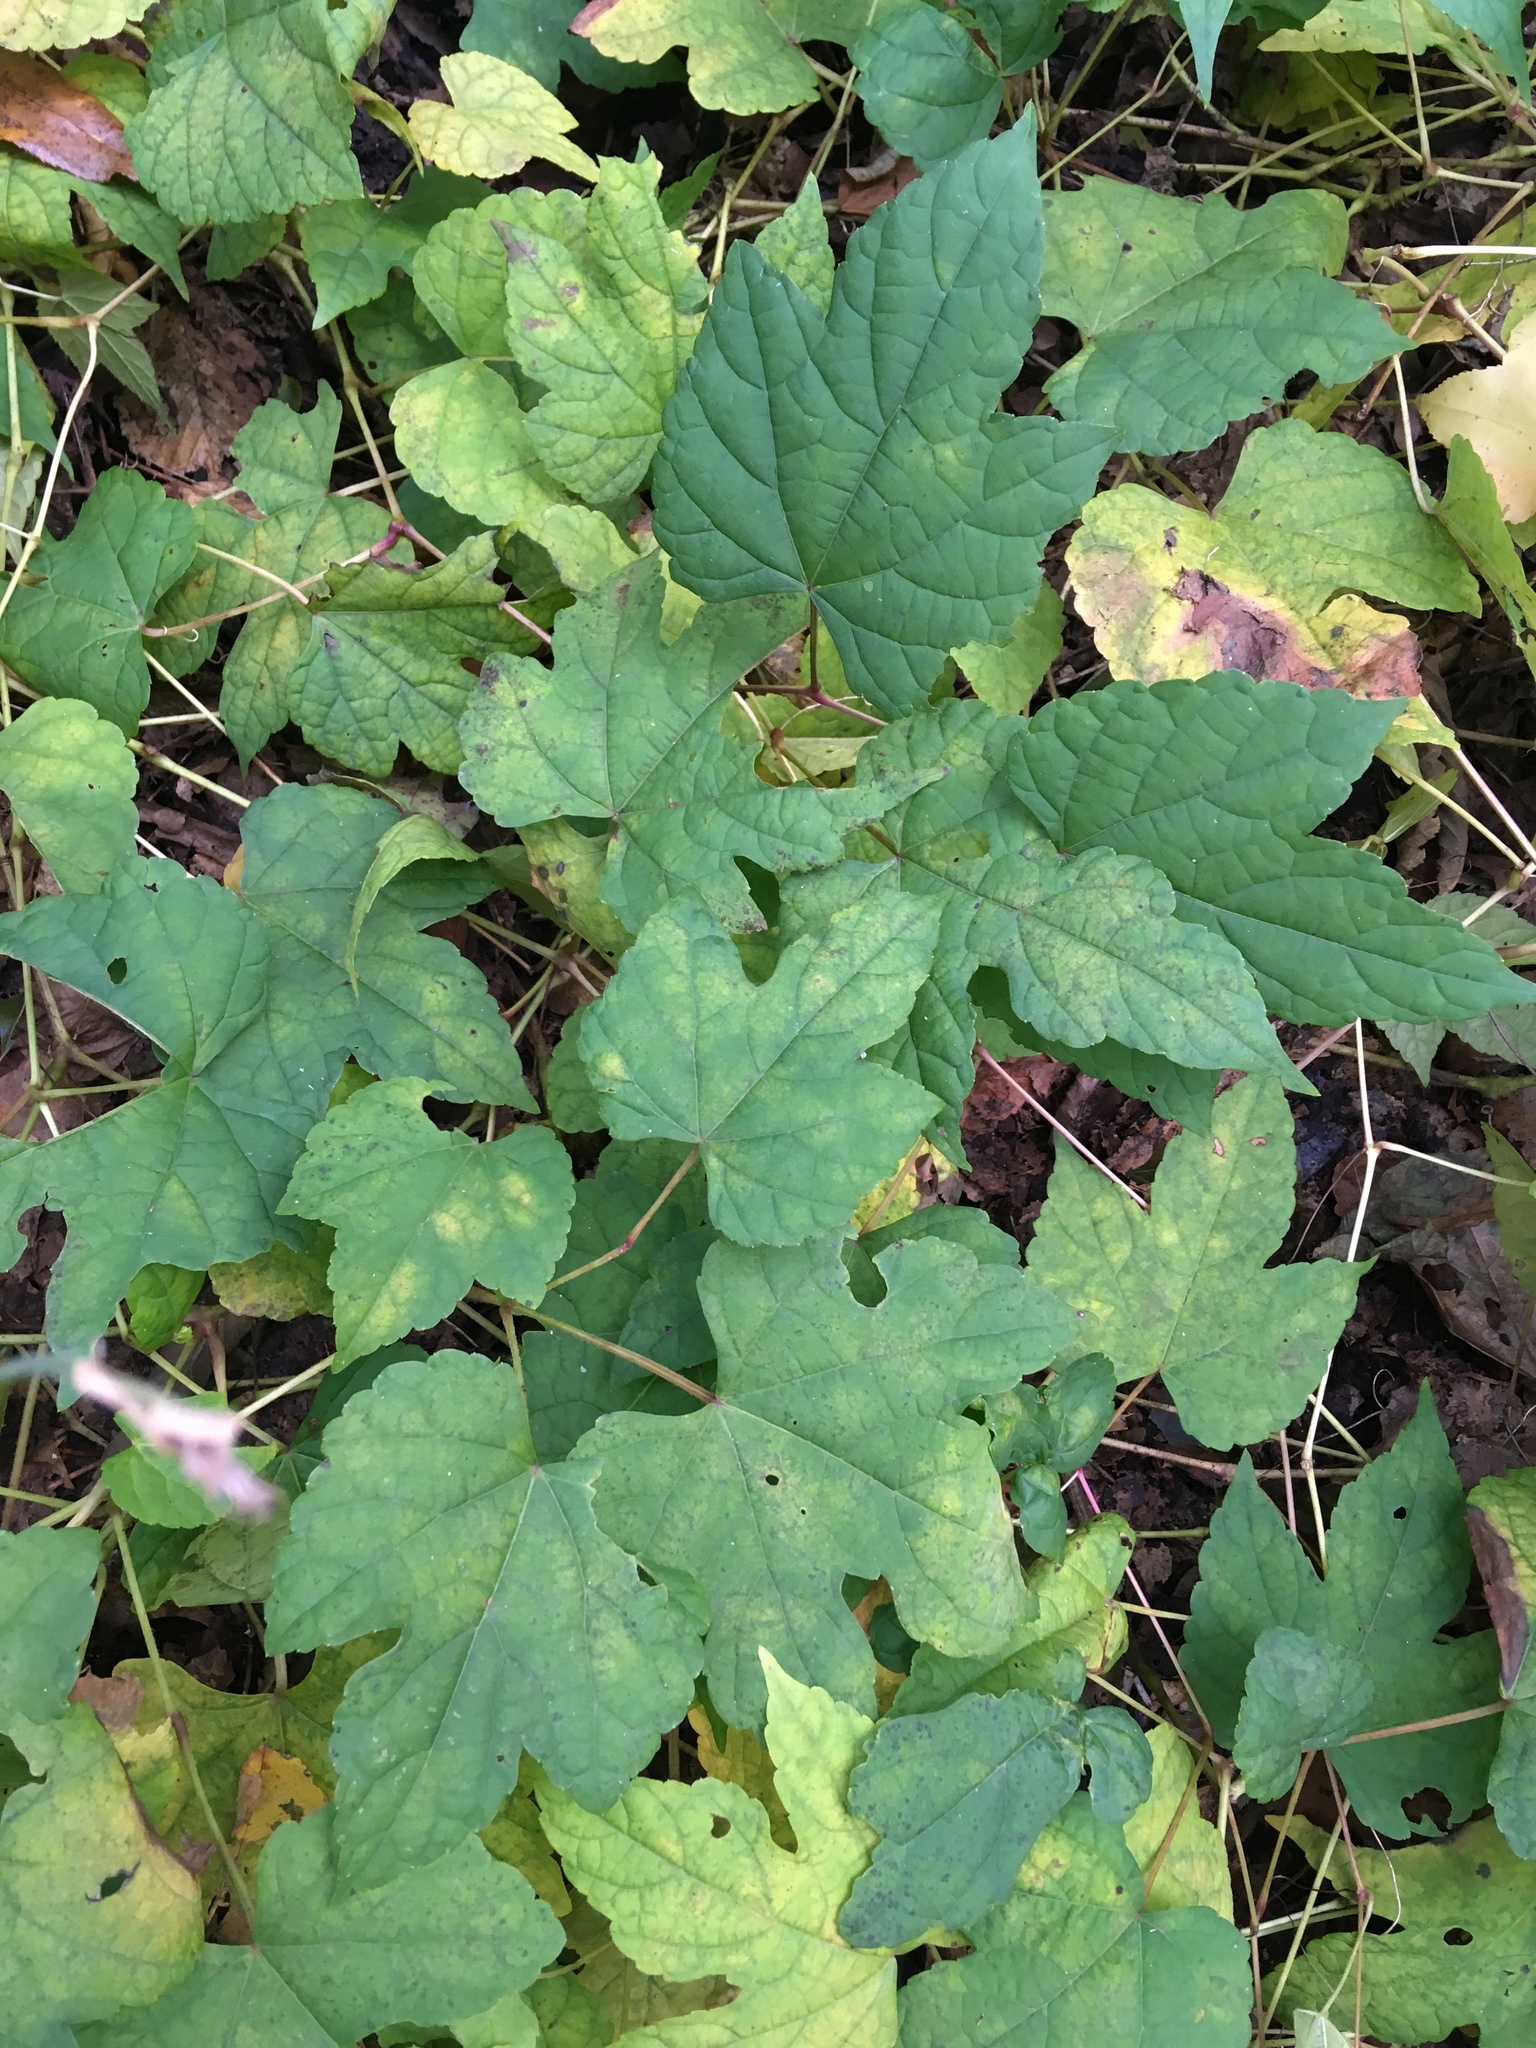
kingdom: Plantae
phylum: Tracheophyta
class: Magnoliopsida
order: Vitales
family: Vitaceae
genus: Ampelopsis
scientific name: Ampelopsis glandulosa
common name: Amur peppervine
